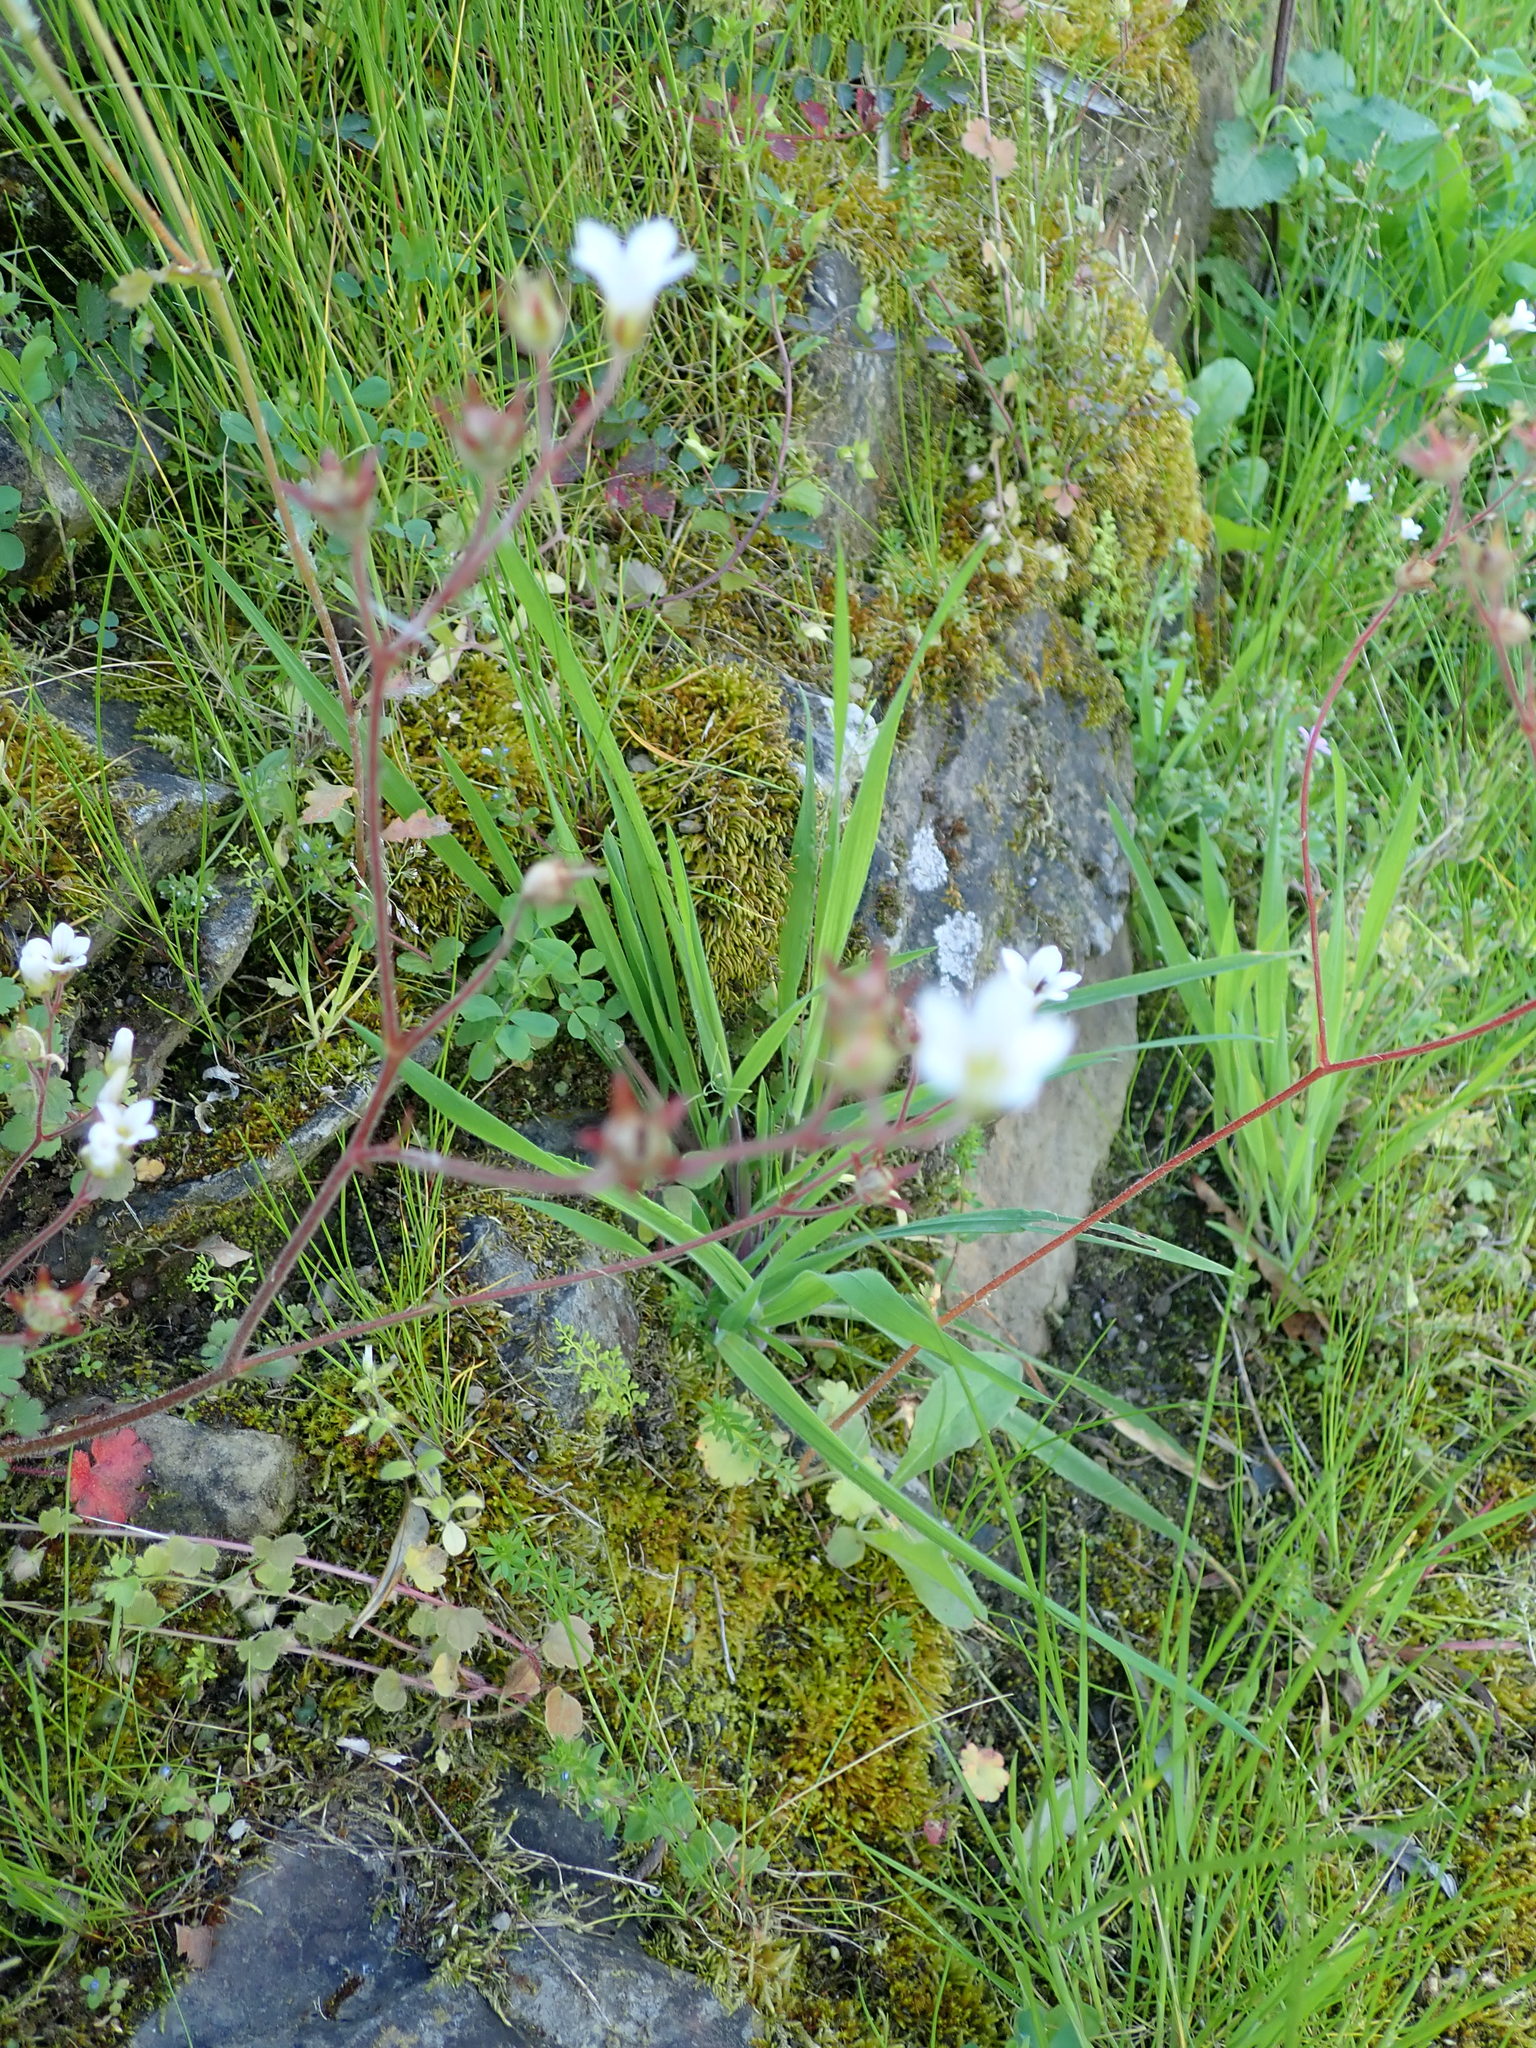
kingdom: Plantae
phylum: Tracheophyta
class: Magnoliopsida
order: Saxifragales
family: Saxifragaceae
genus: Saxifraga
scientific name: Saxifraga granulata
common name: Meadow saxifrage
